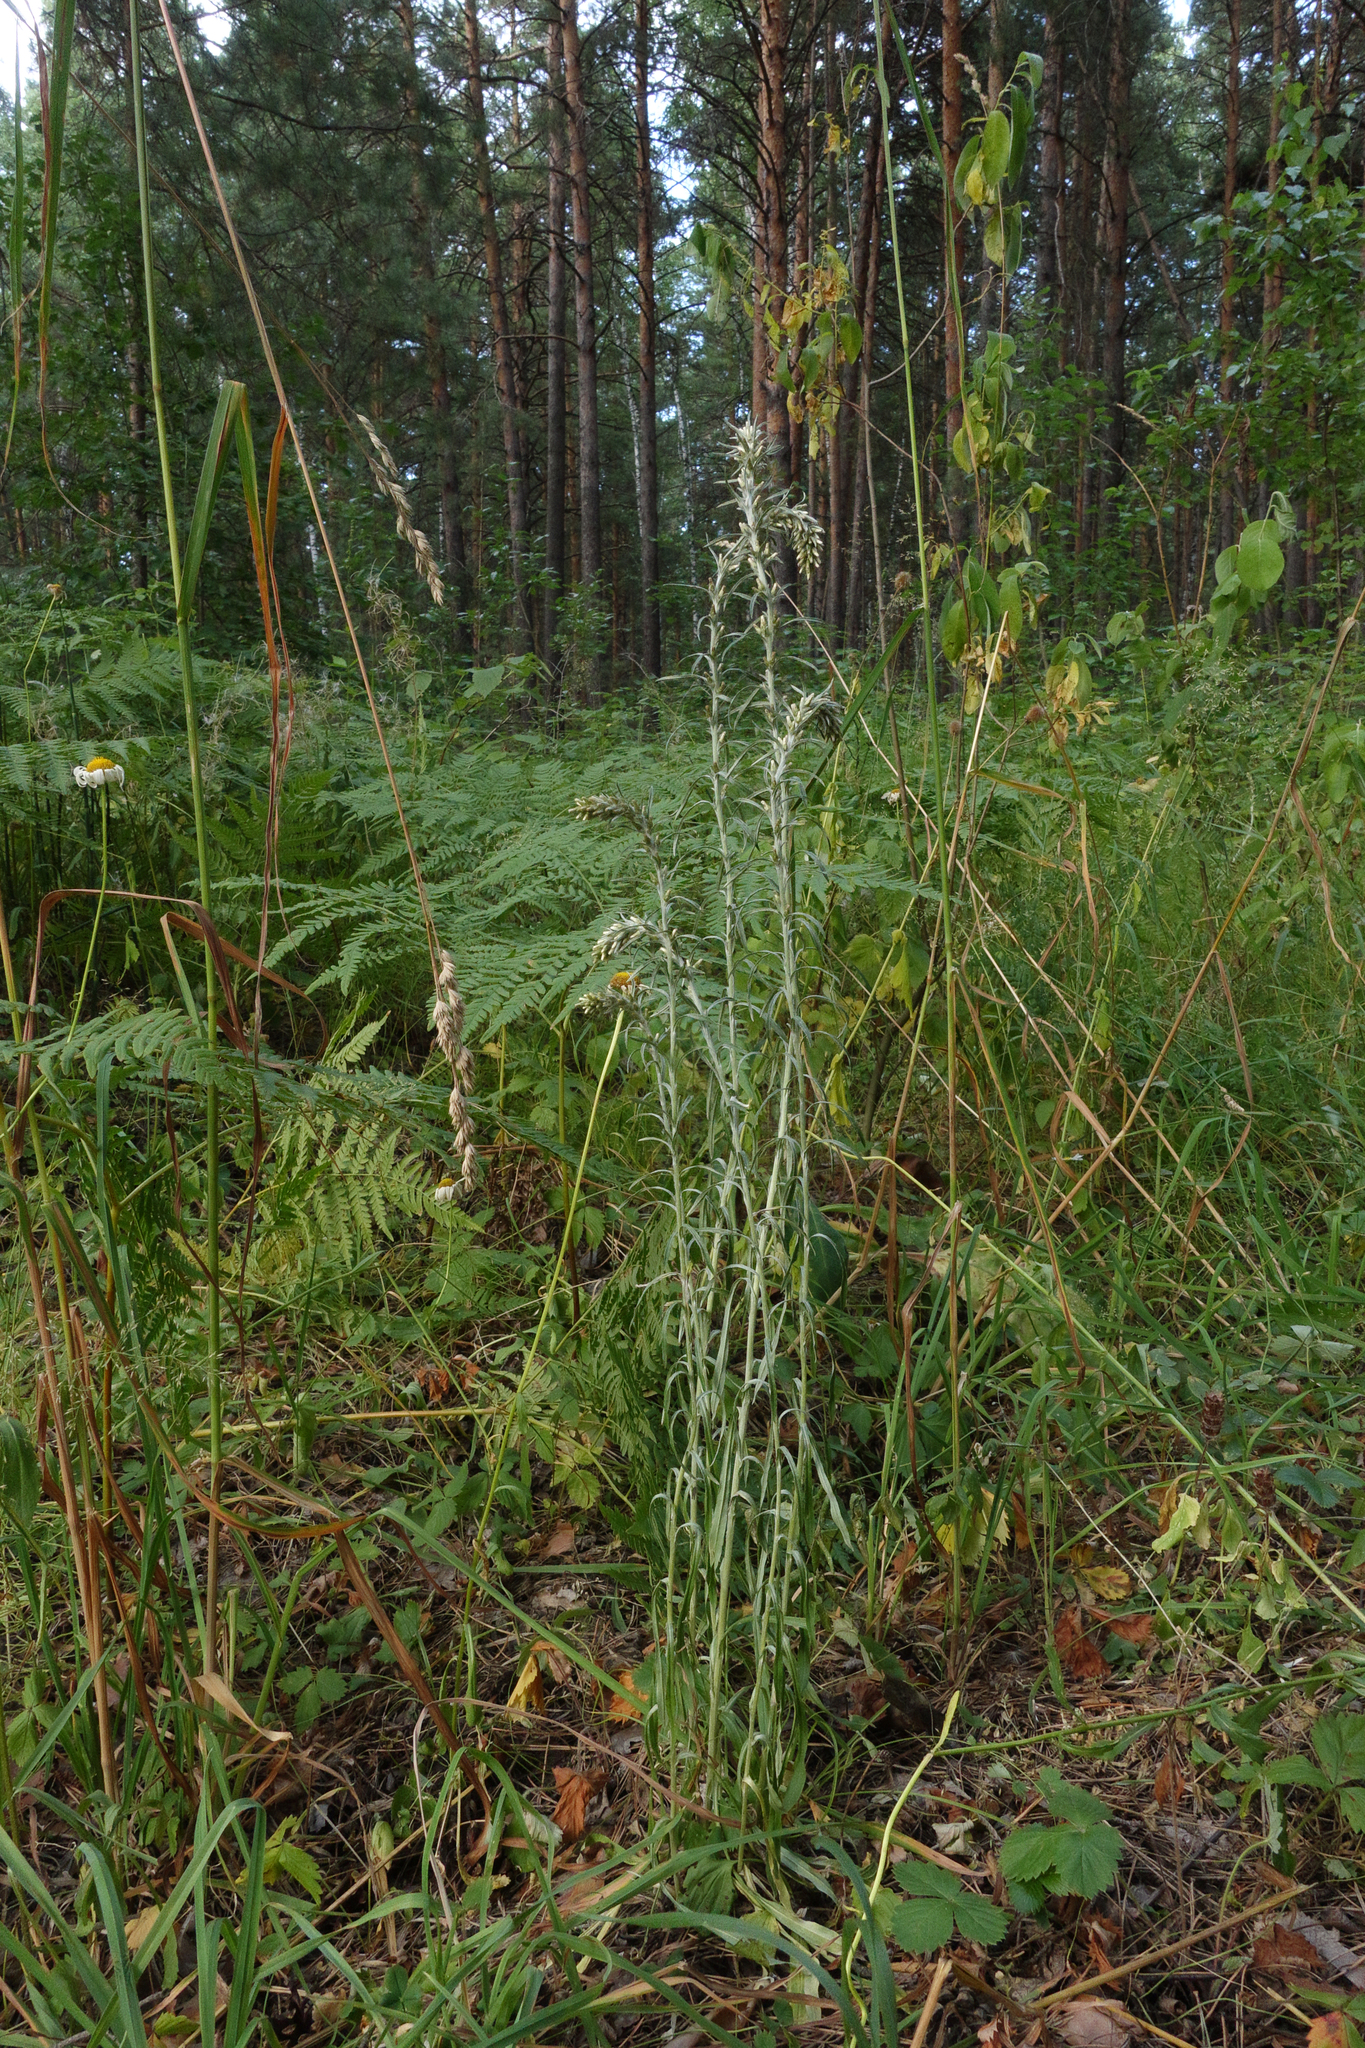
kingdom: Plantae
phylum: Tracheophyta
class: Magnoliopsida
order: Asterales
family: Asteraceae
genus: Omalotheca
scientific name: Omalotheca sylvatica
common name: Heath cudweed
